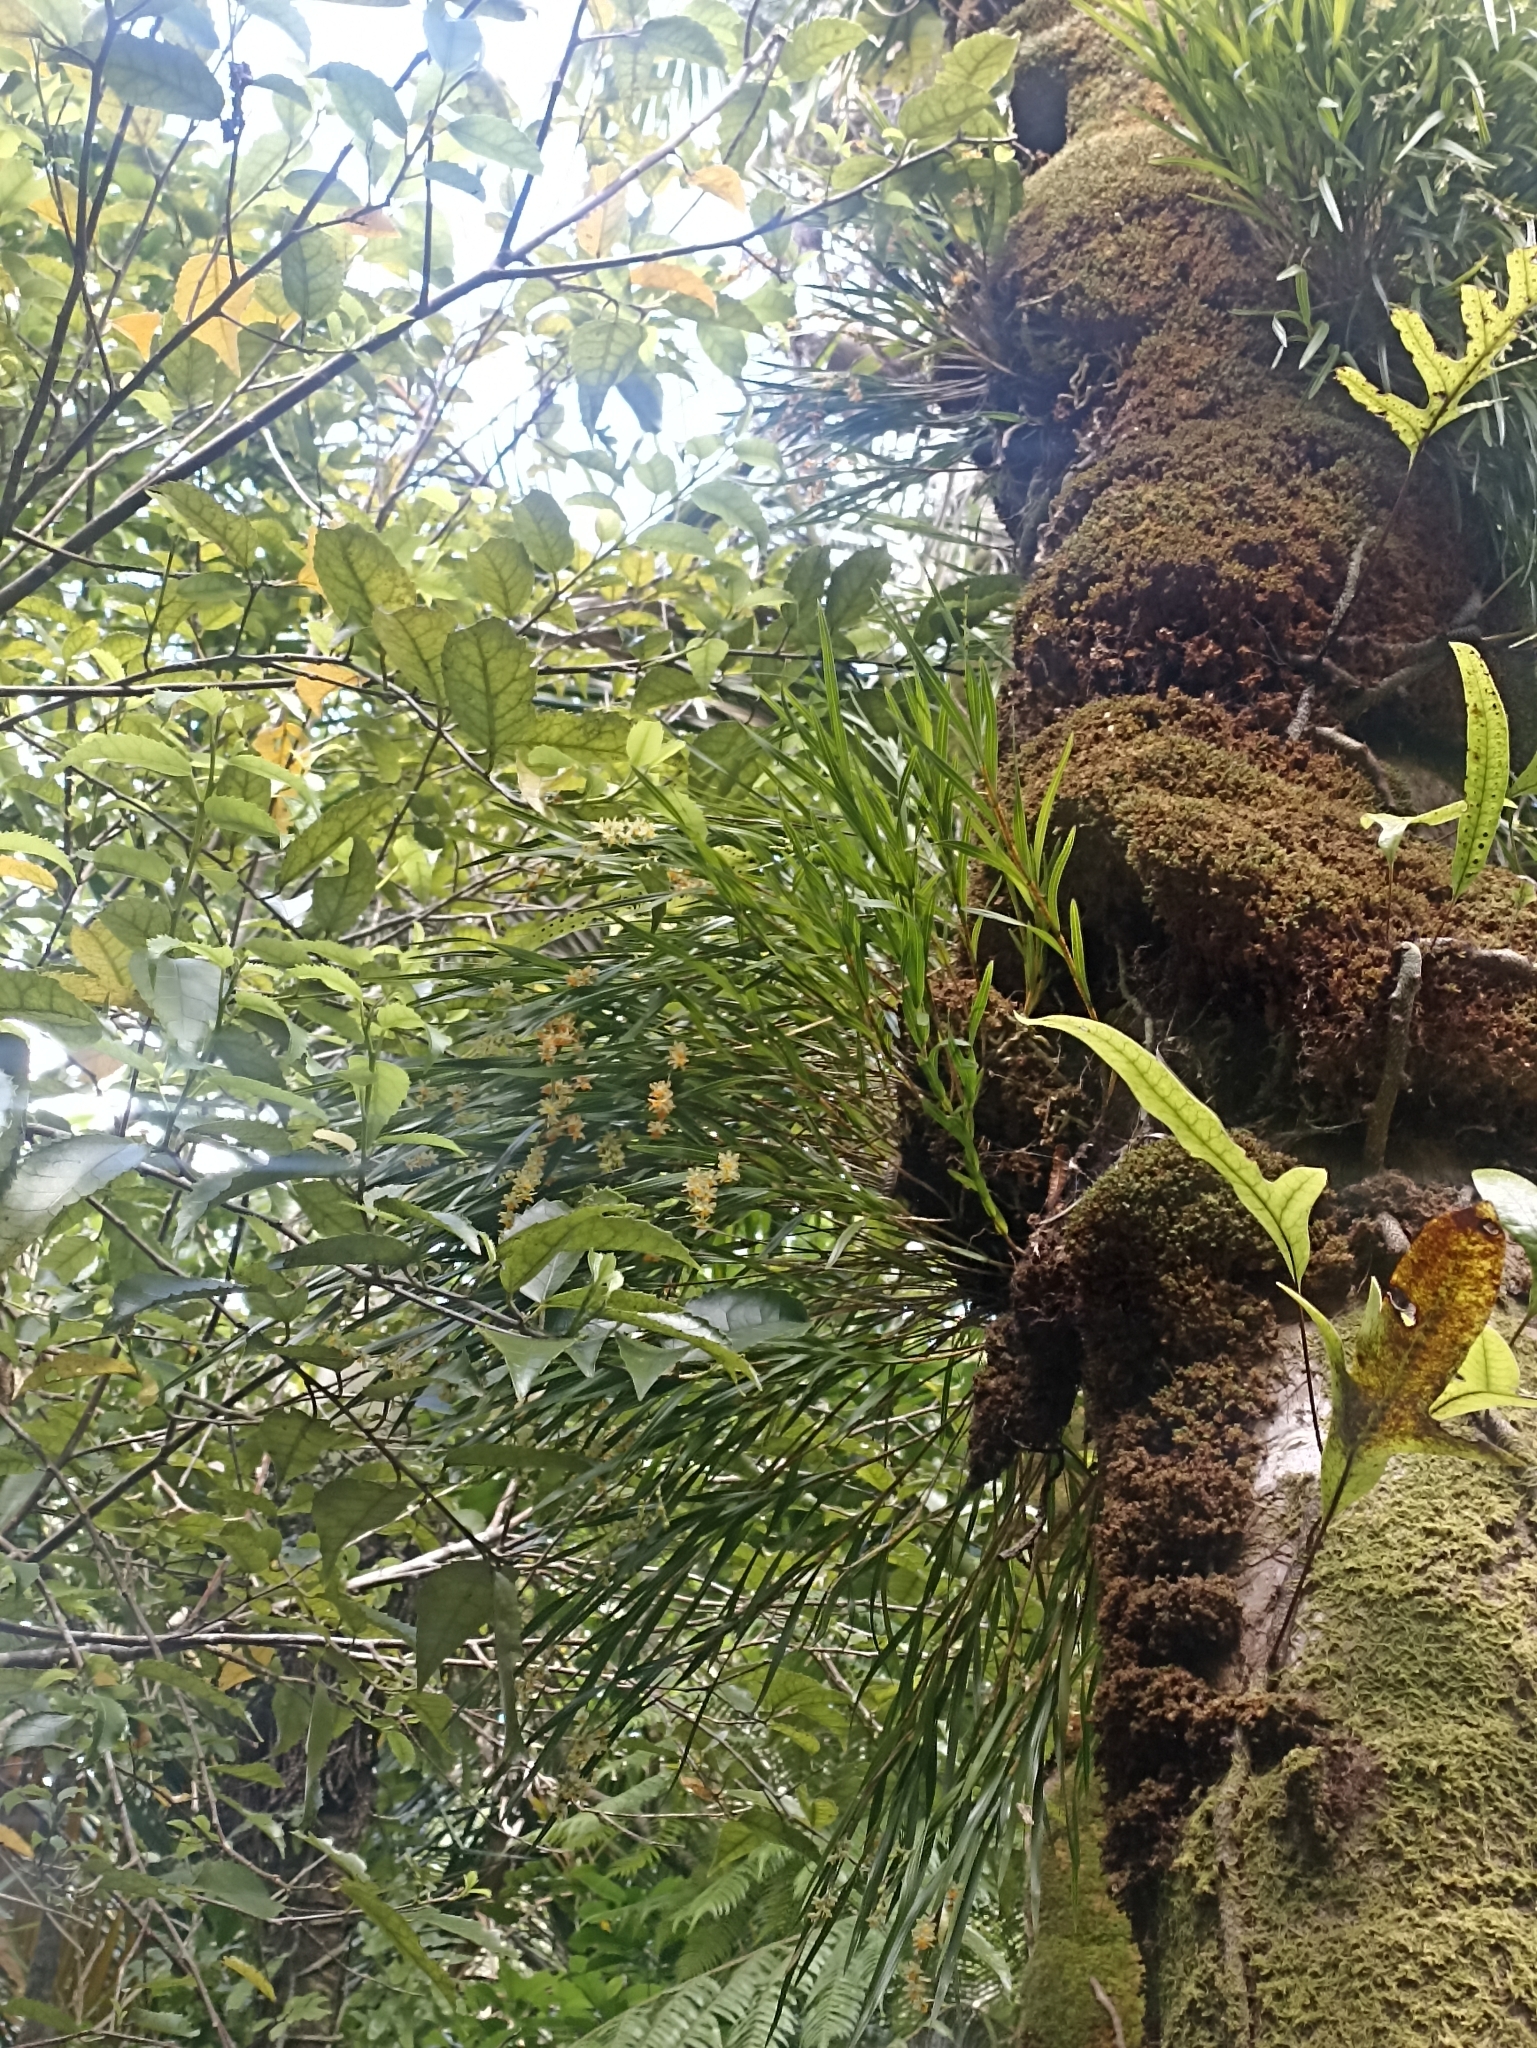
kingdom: Plantae
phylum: Tracheophyta
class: Liliopsida
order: Asparagales
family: Orchidaceae
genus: Earina
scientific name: Earina mucronata
